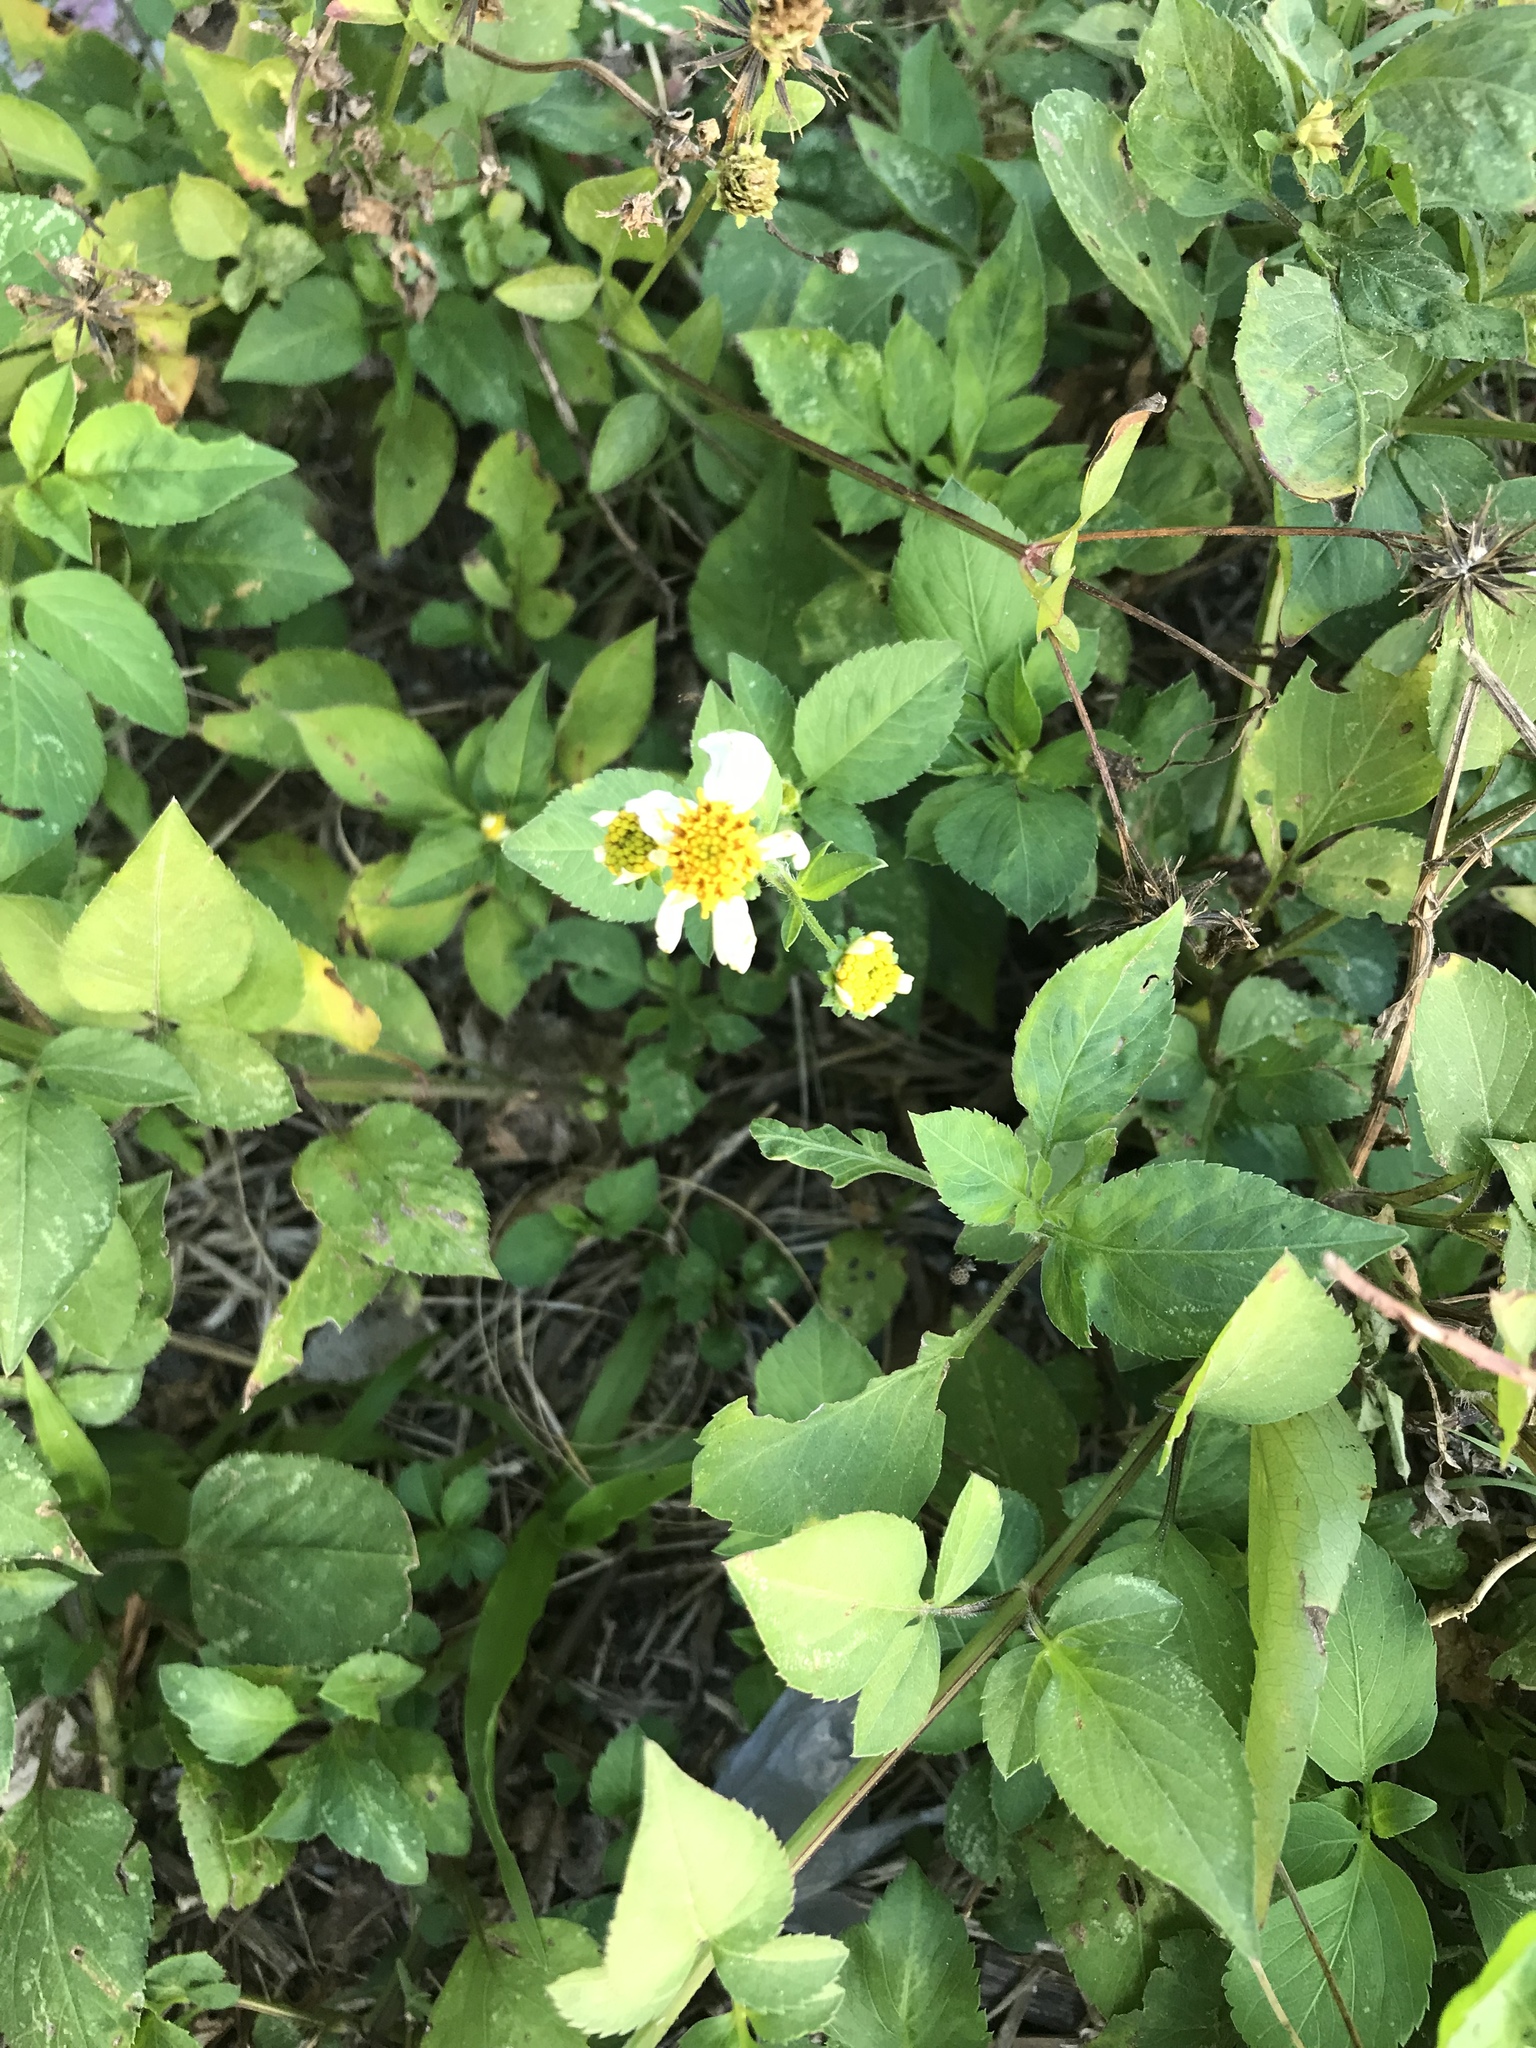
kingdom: Plantae
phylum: Tracheophyta
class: Magnoliopsida
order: Asterales
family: Asteraceae
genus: Bidens
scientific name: Bidens alba
